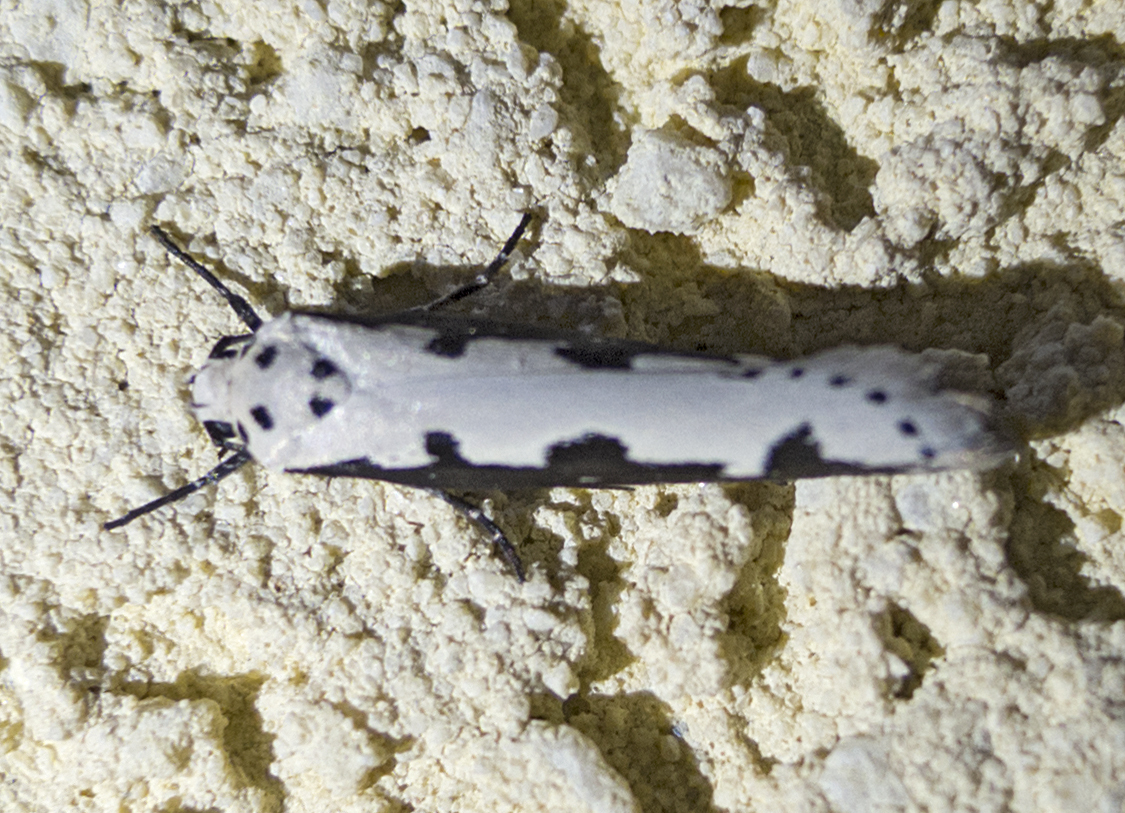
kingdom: Animalia
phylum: Arthropoda
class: Insecta
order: Lepidoptera
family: Ethmiidae
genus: Ethmia
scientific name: Ethmia bipunctella
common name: Bordered ermel
